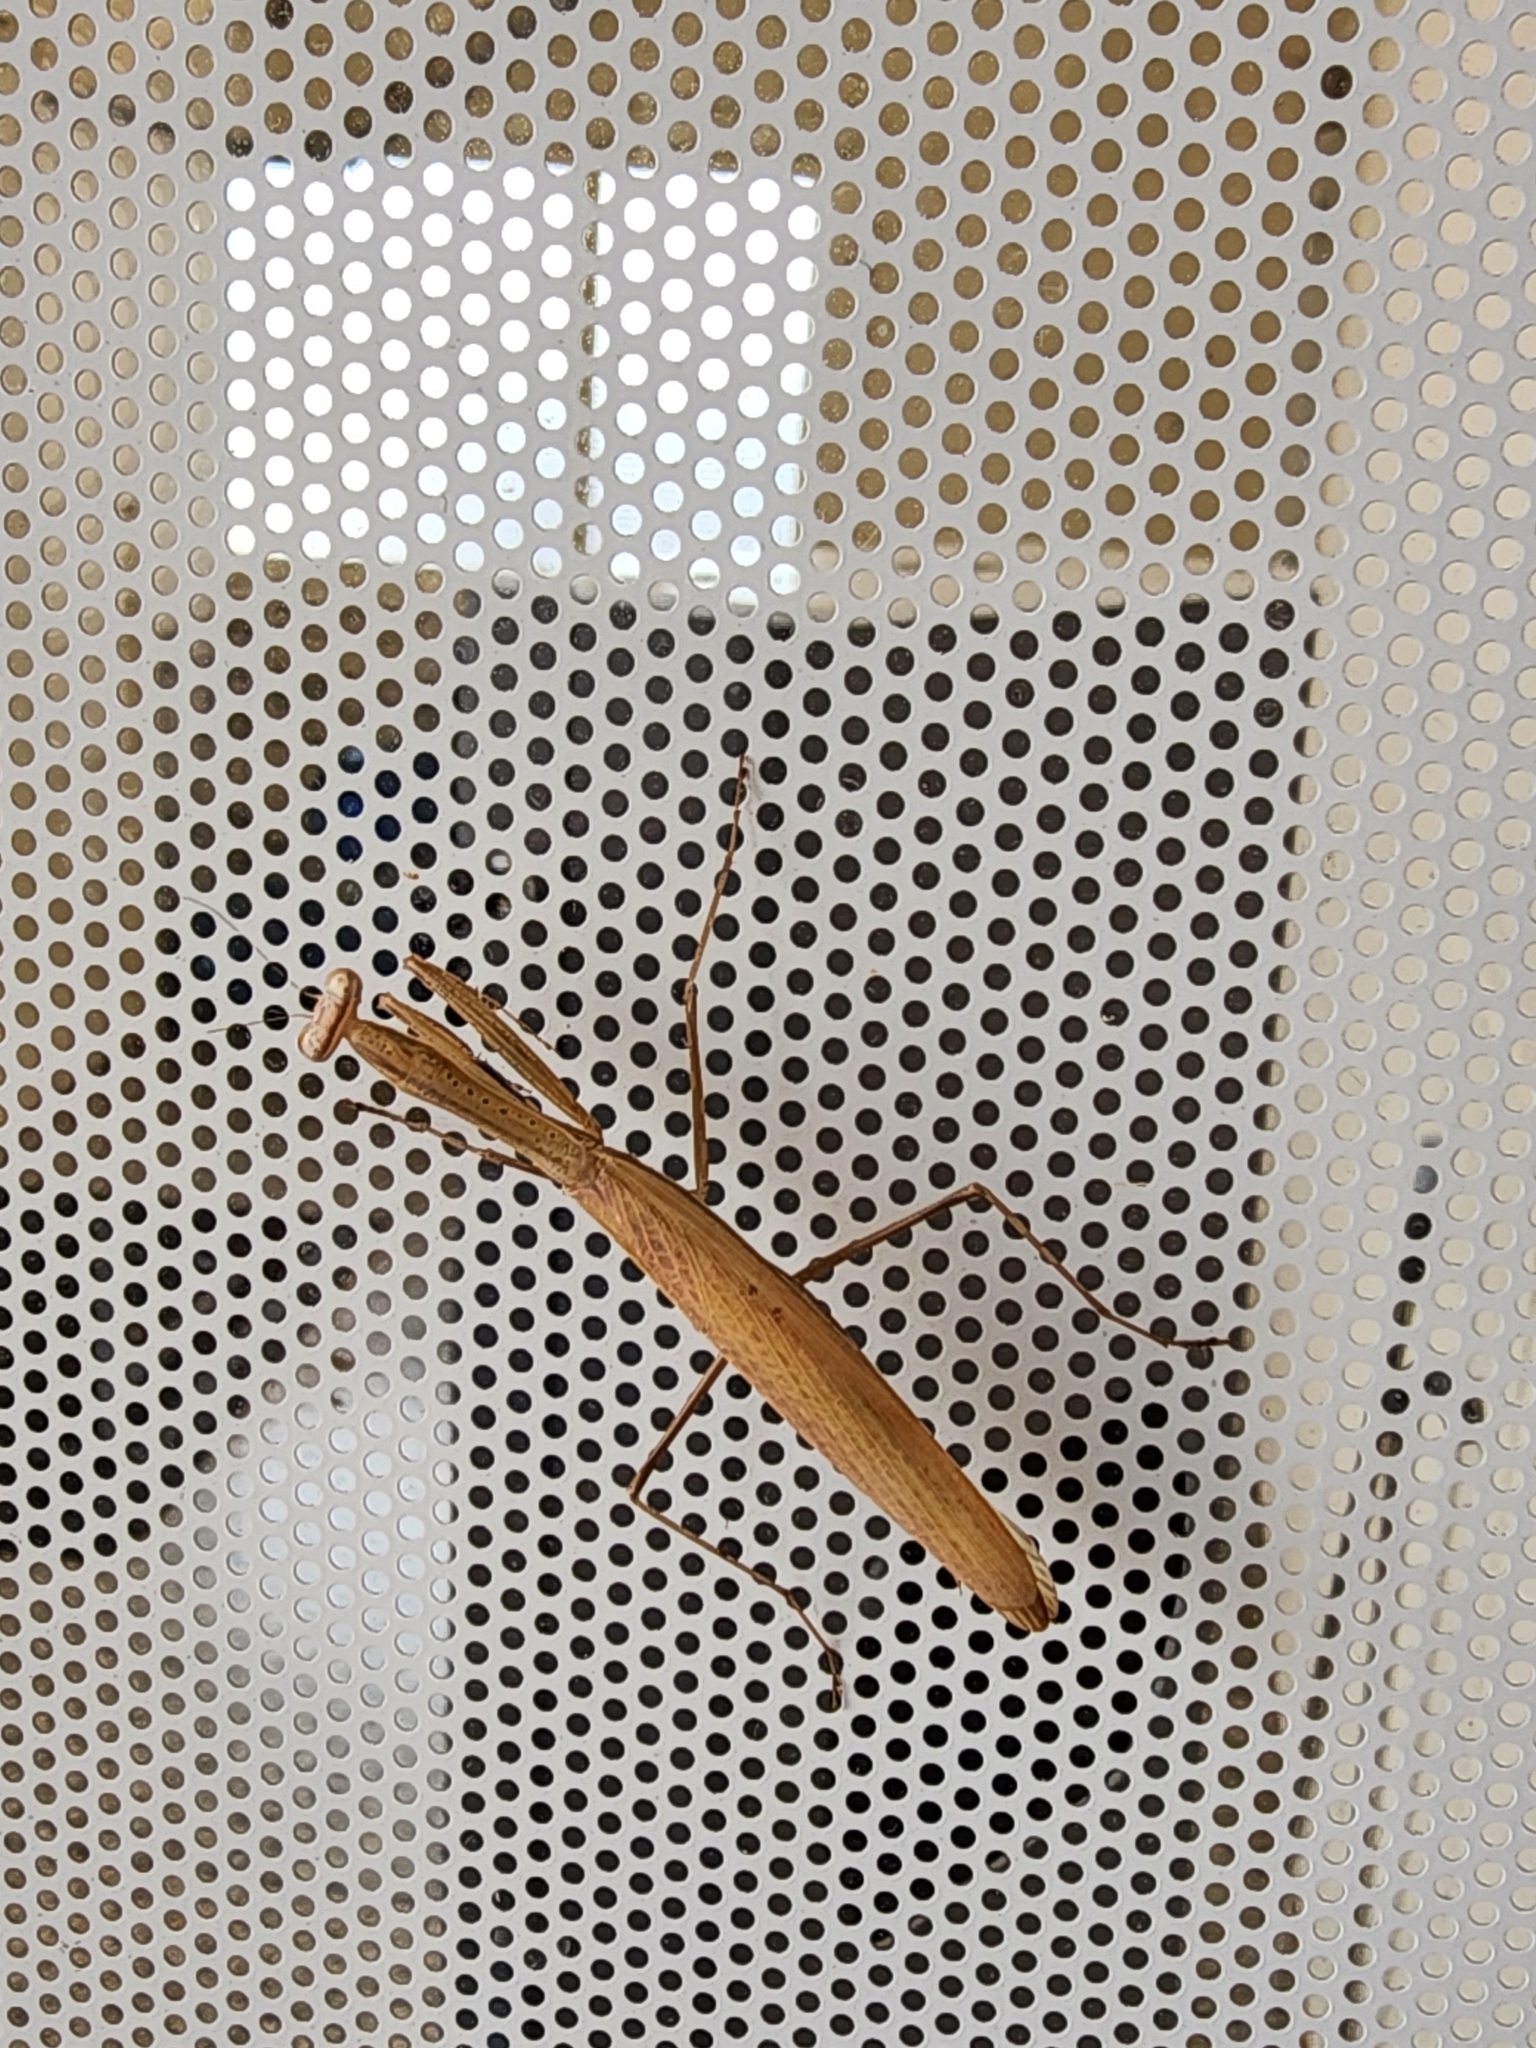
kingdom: Animalia
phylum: Arthropoda
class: Insecta
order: Mantodea
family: Mantidae
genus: Statilia
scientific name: Statilia apicalis
